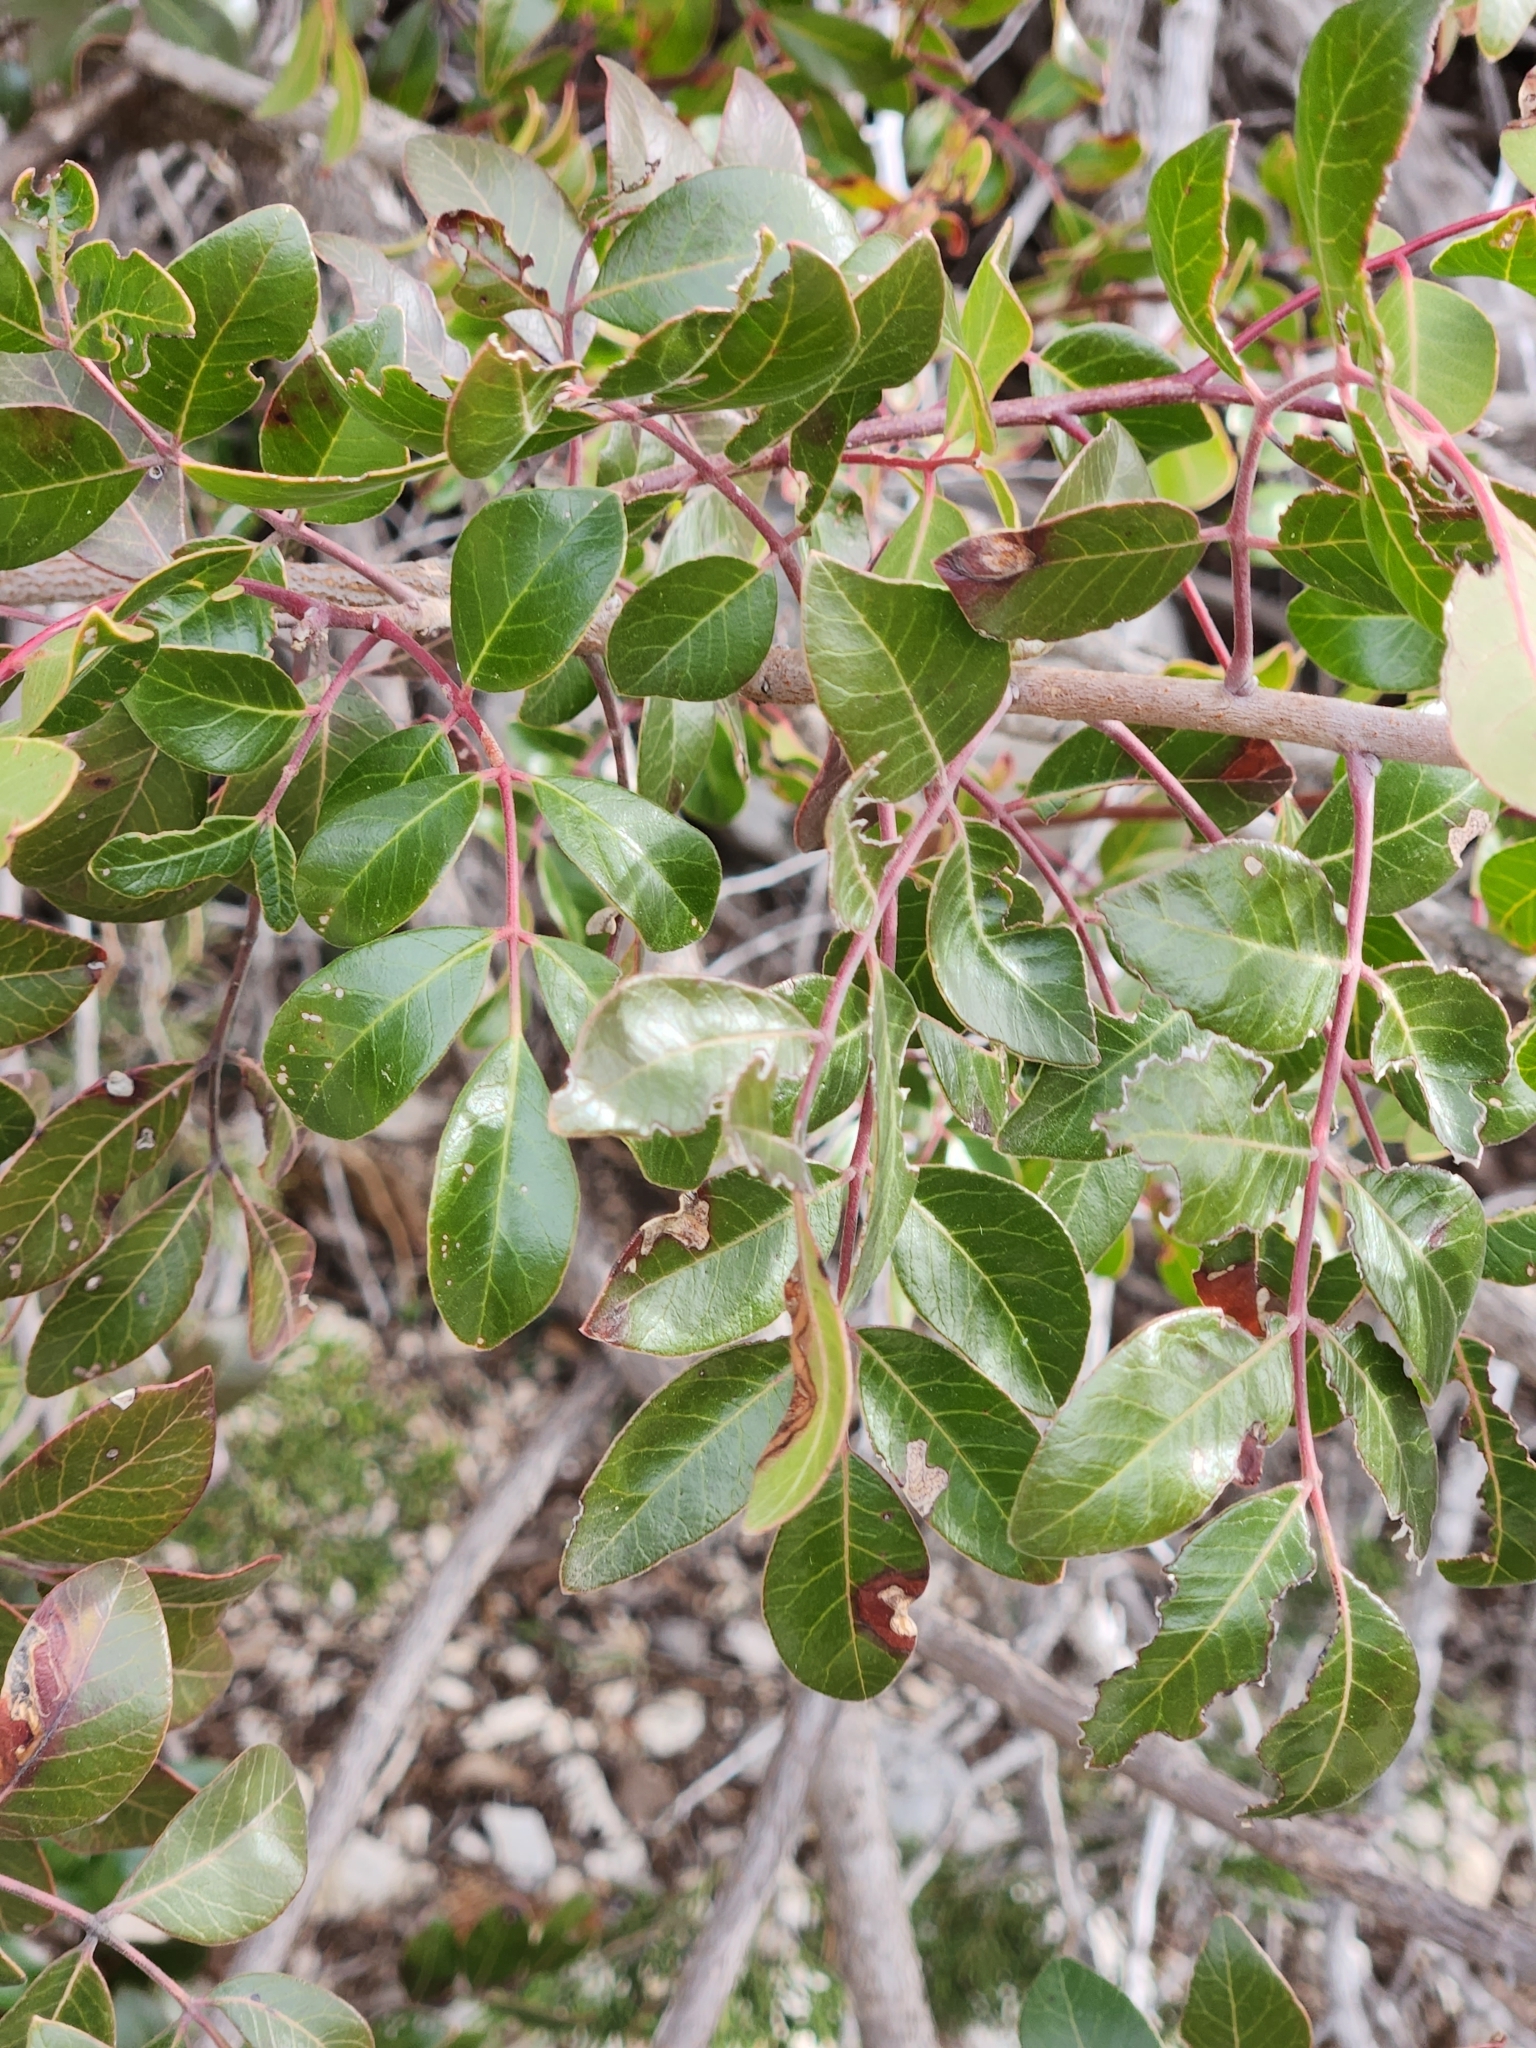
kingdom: Plantae
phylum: Tracheophyta
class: Magnoliopsida
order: Sapindales
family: Anacardiaceae
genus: Rhus
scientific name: Rhus virens
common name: Evergreen sumac
